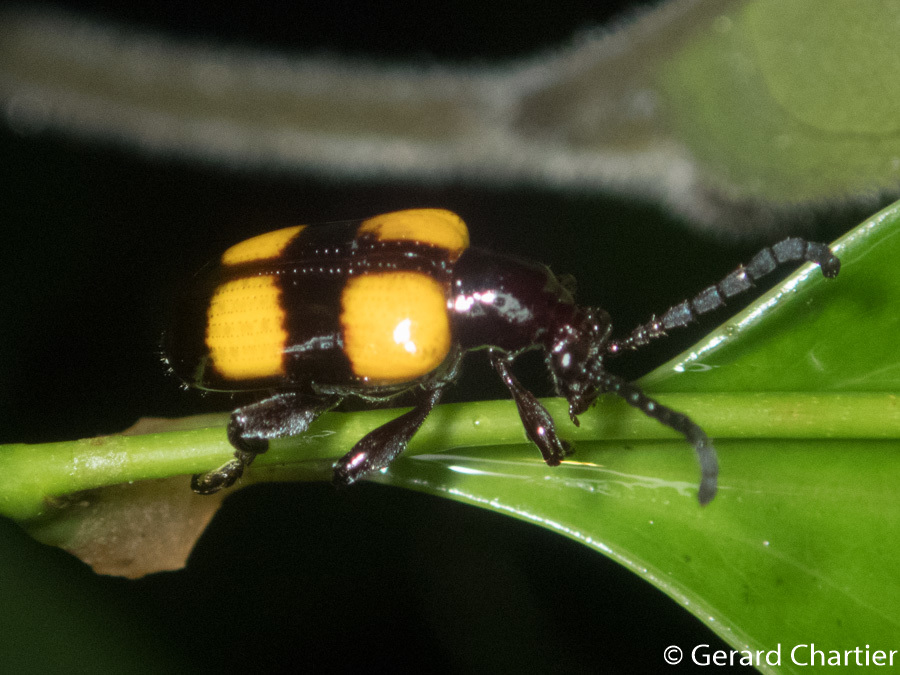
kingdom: Animalia
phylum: Arthropoda
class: Insecta
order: Coleoptera
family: Chrysomelidae
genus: Lilioceris
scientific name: Lilioceris
